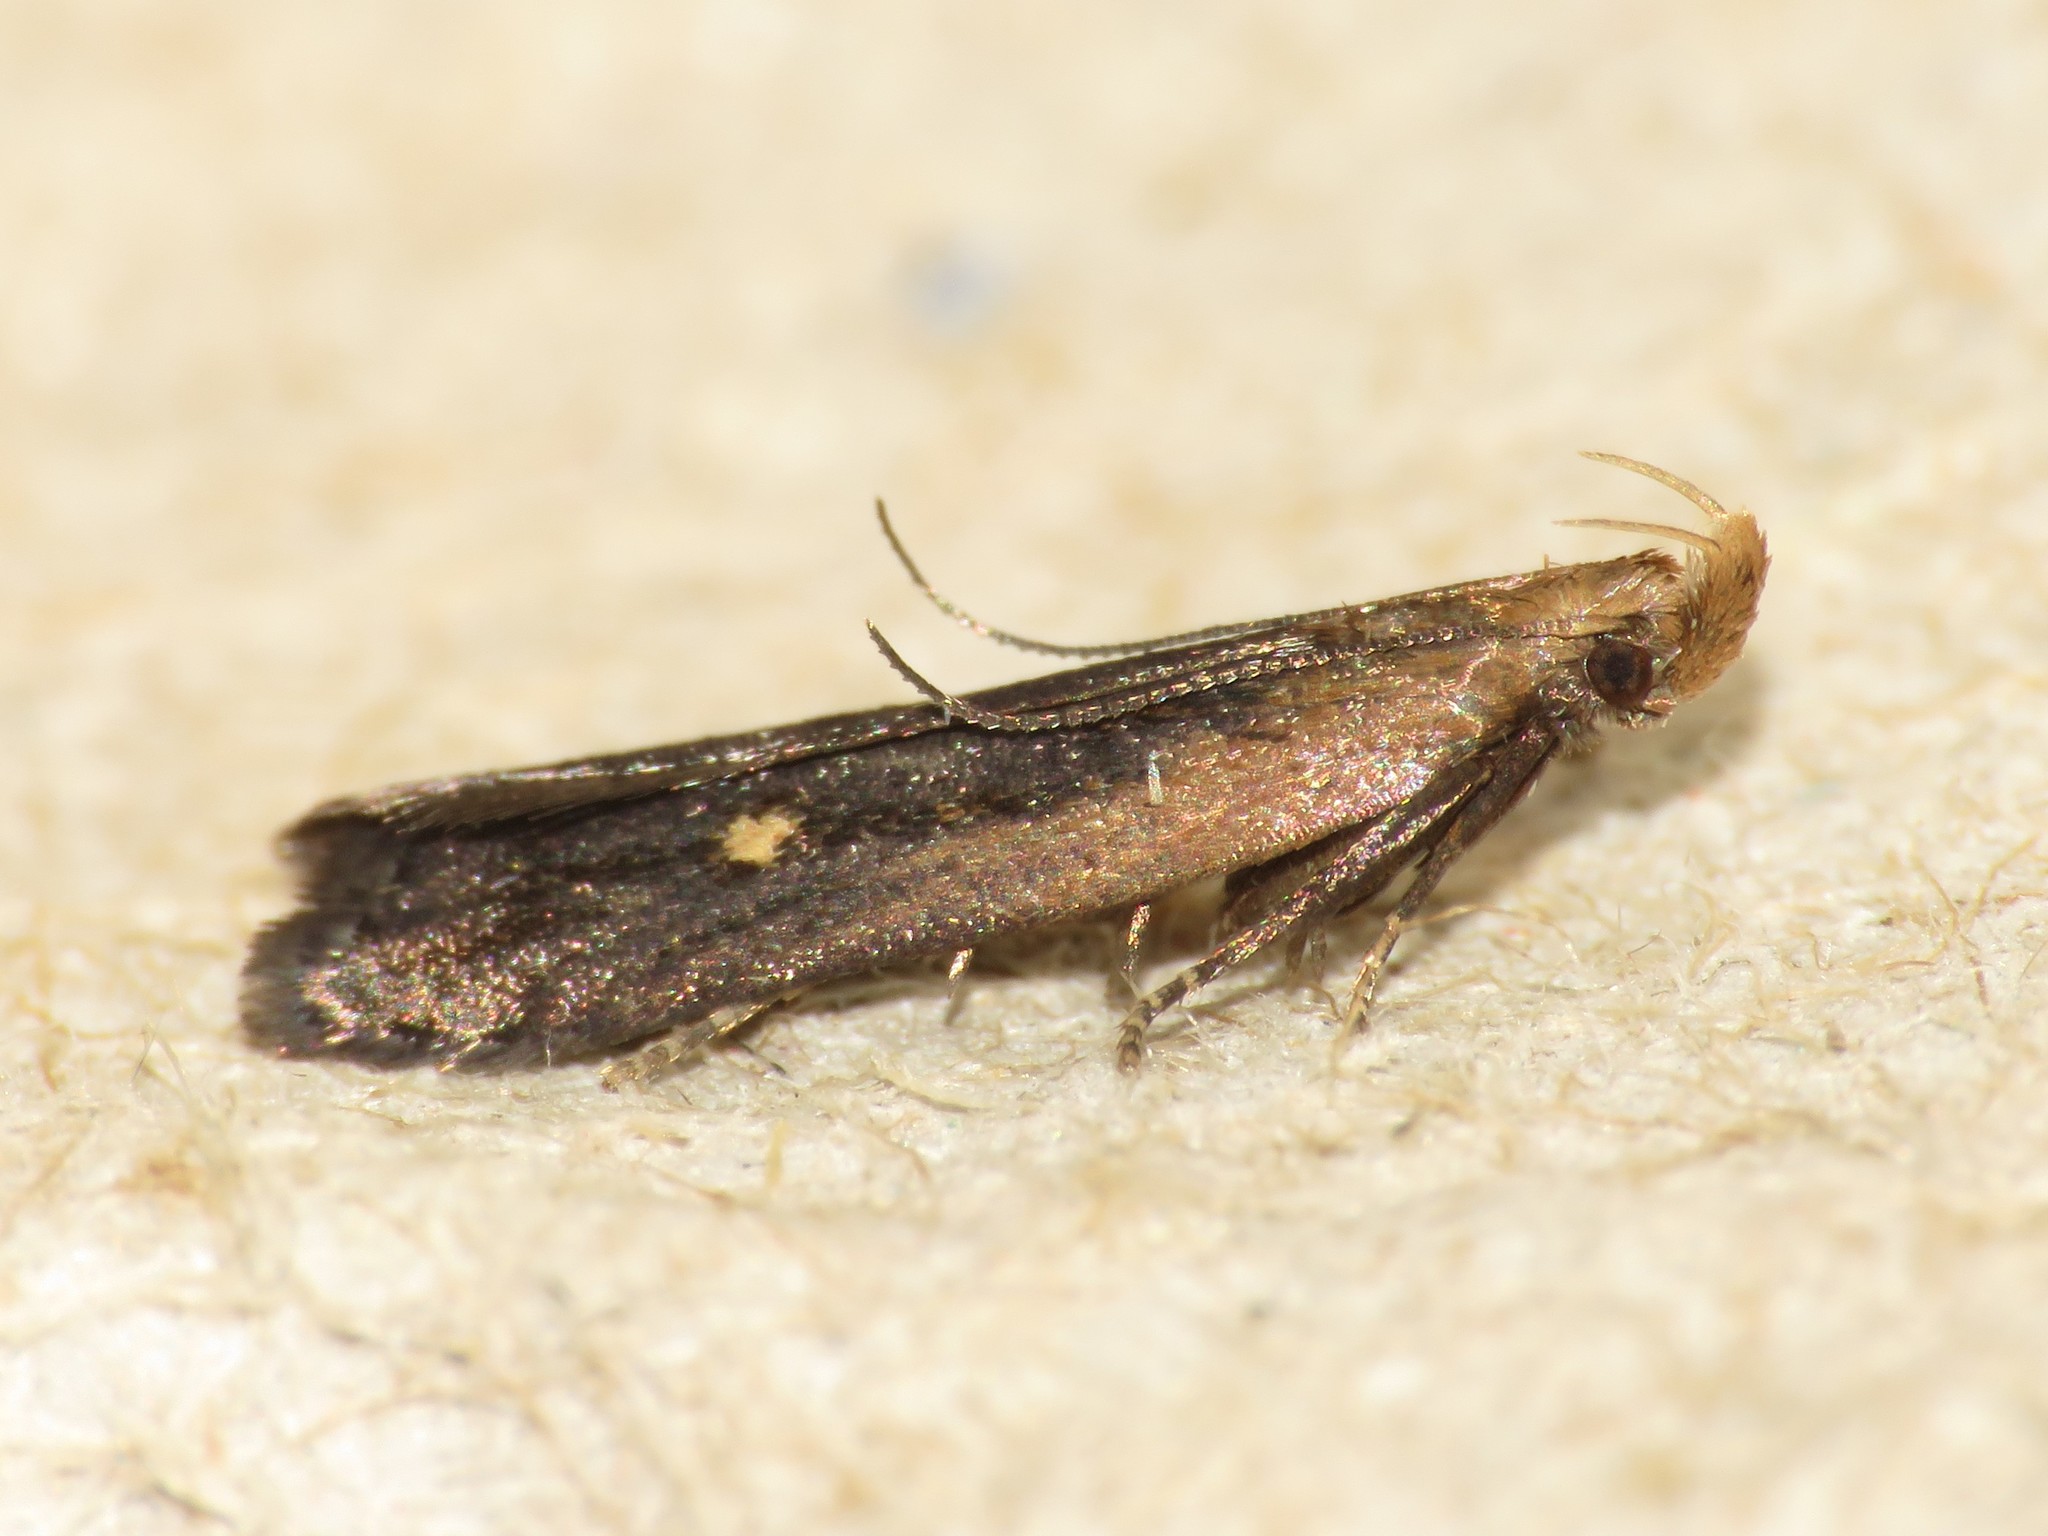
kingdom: Animalia
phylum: Arthropoda
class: Insecta
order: Lepidoptera
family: Gelechiidae
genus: Dichomeris
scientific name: Dichomeris copa
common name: Copa dichomeris moth
